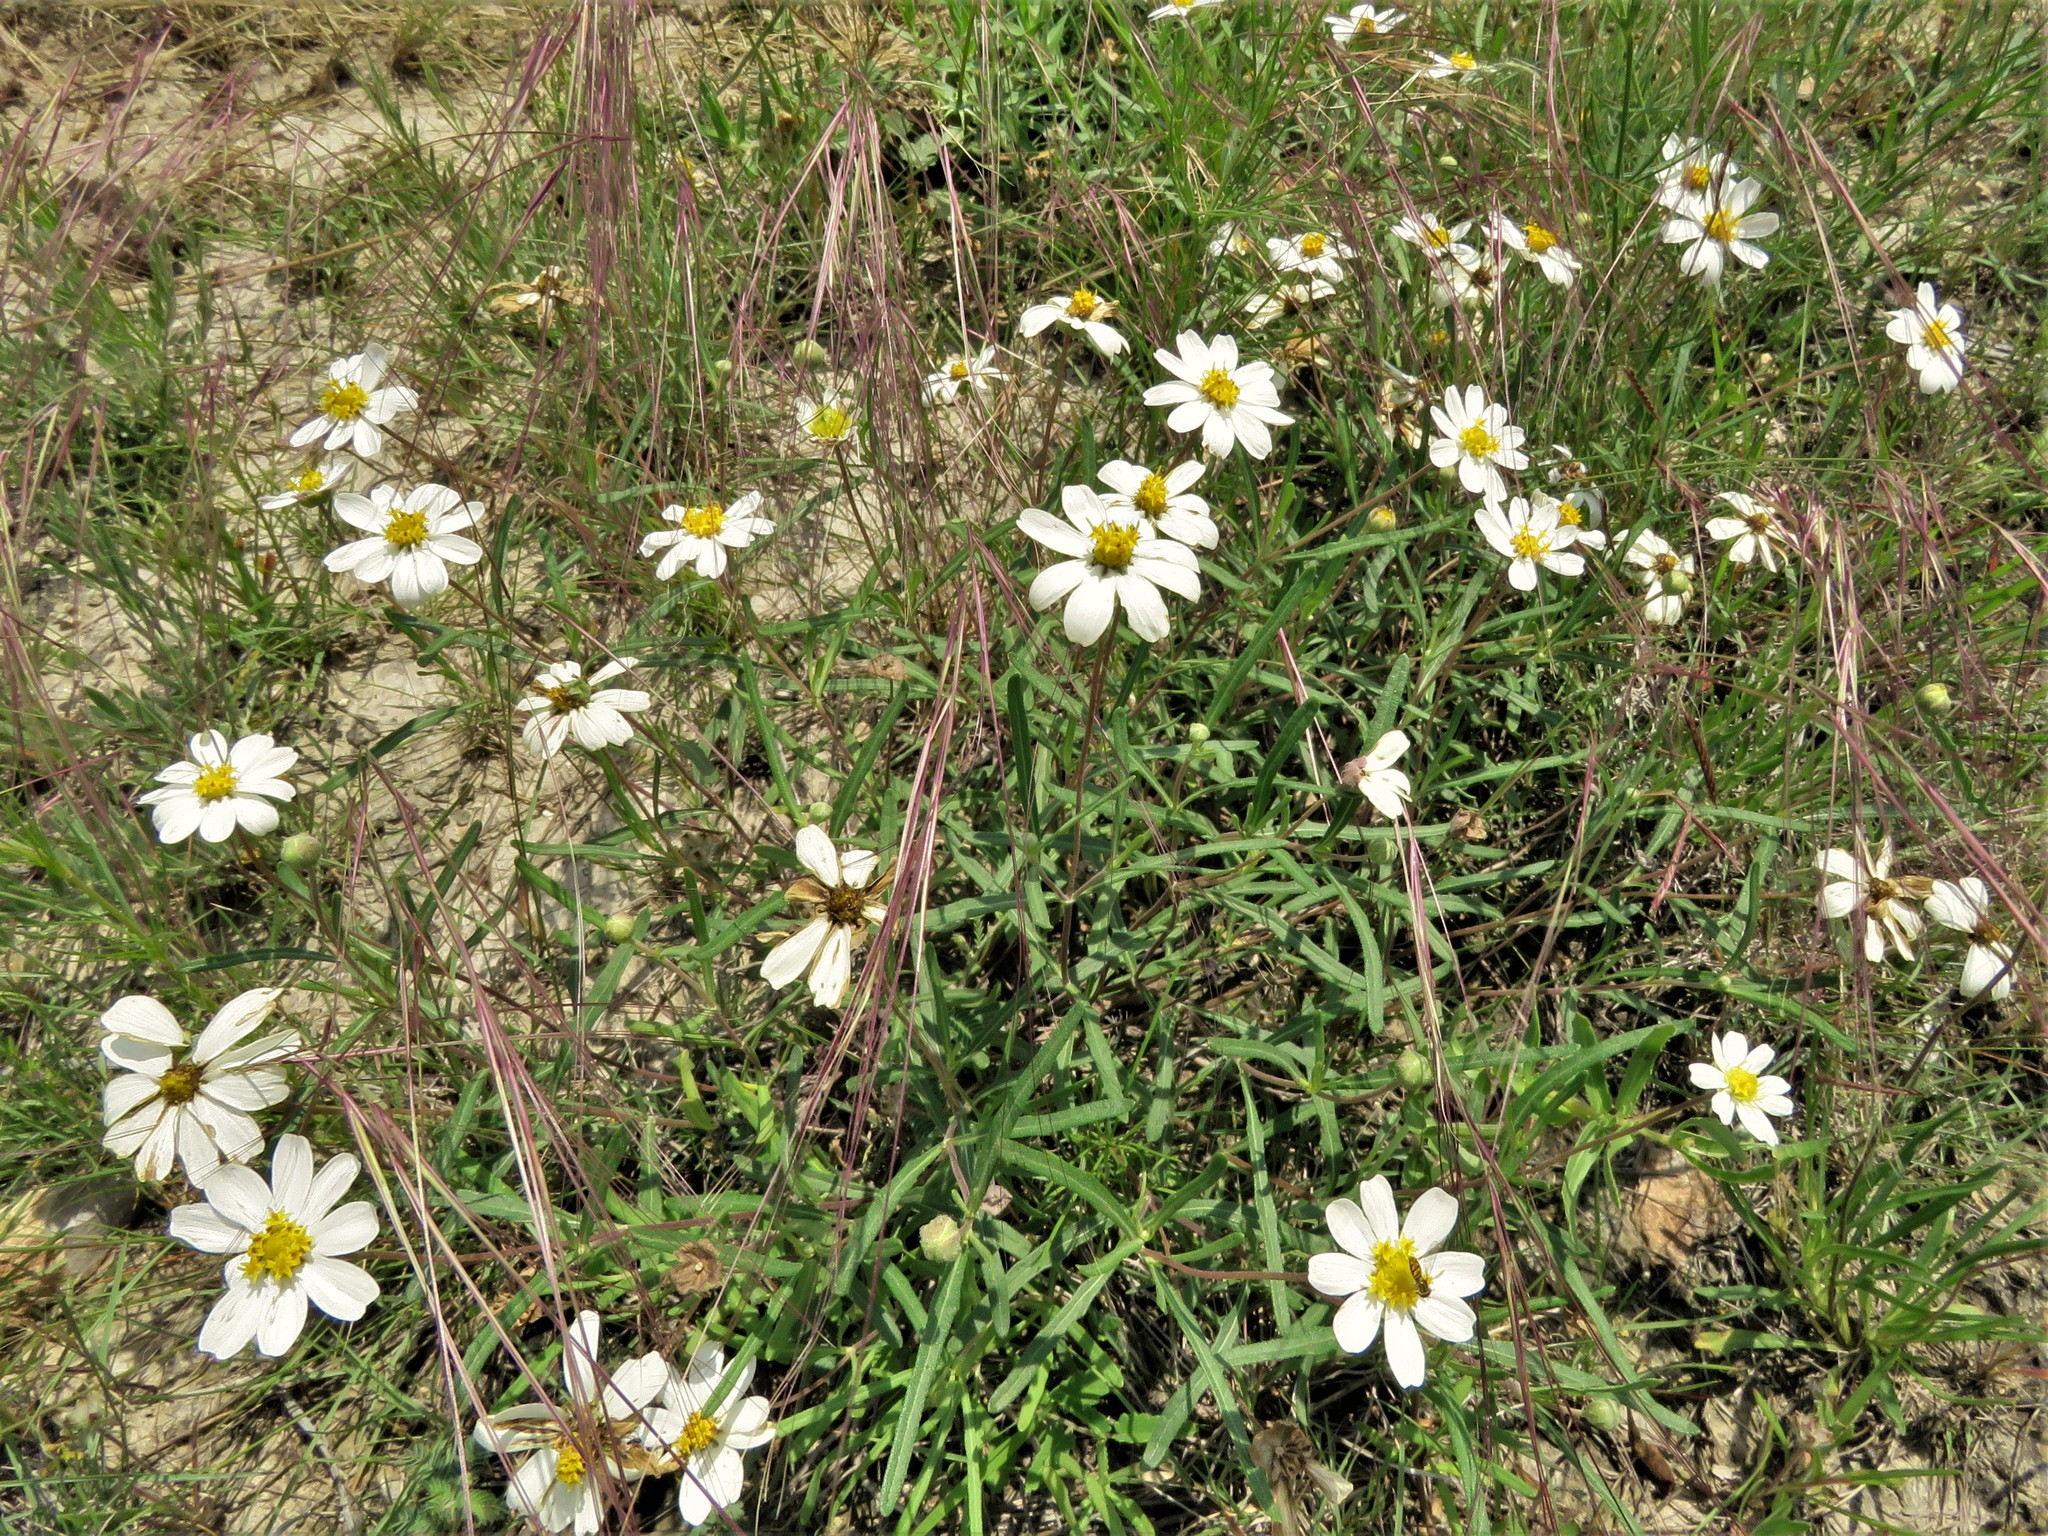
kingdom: Plantae
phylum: Tracheophyta
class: Magnoliopsida
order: Asterales
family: Asteraceae
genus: Melampodium
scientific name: Melampodium leucanthum
